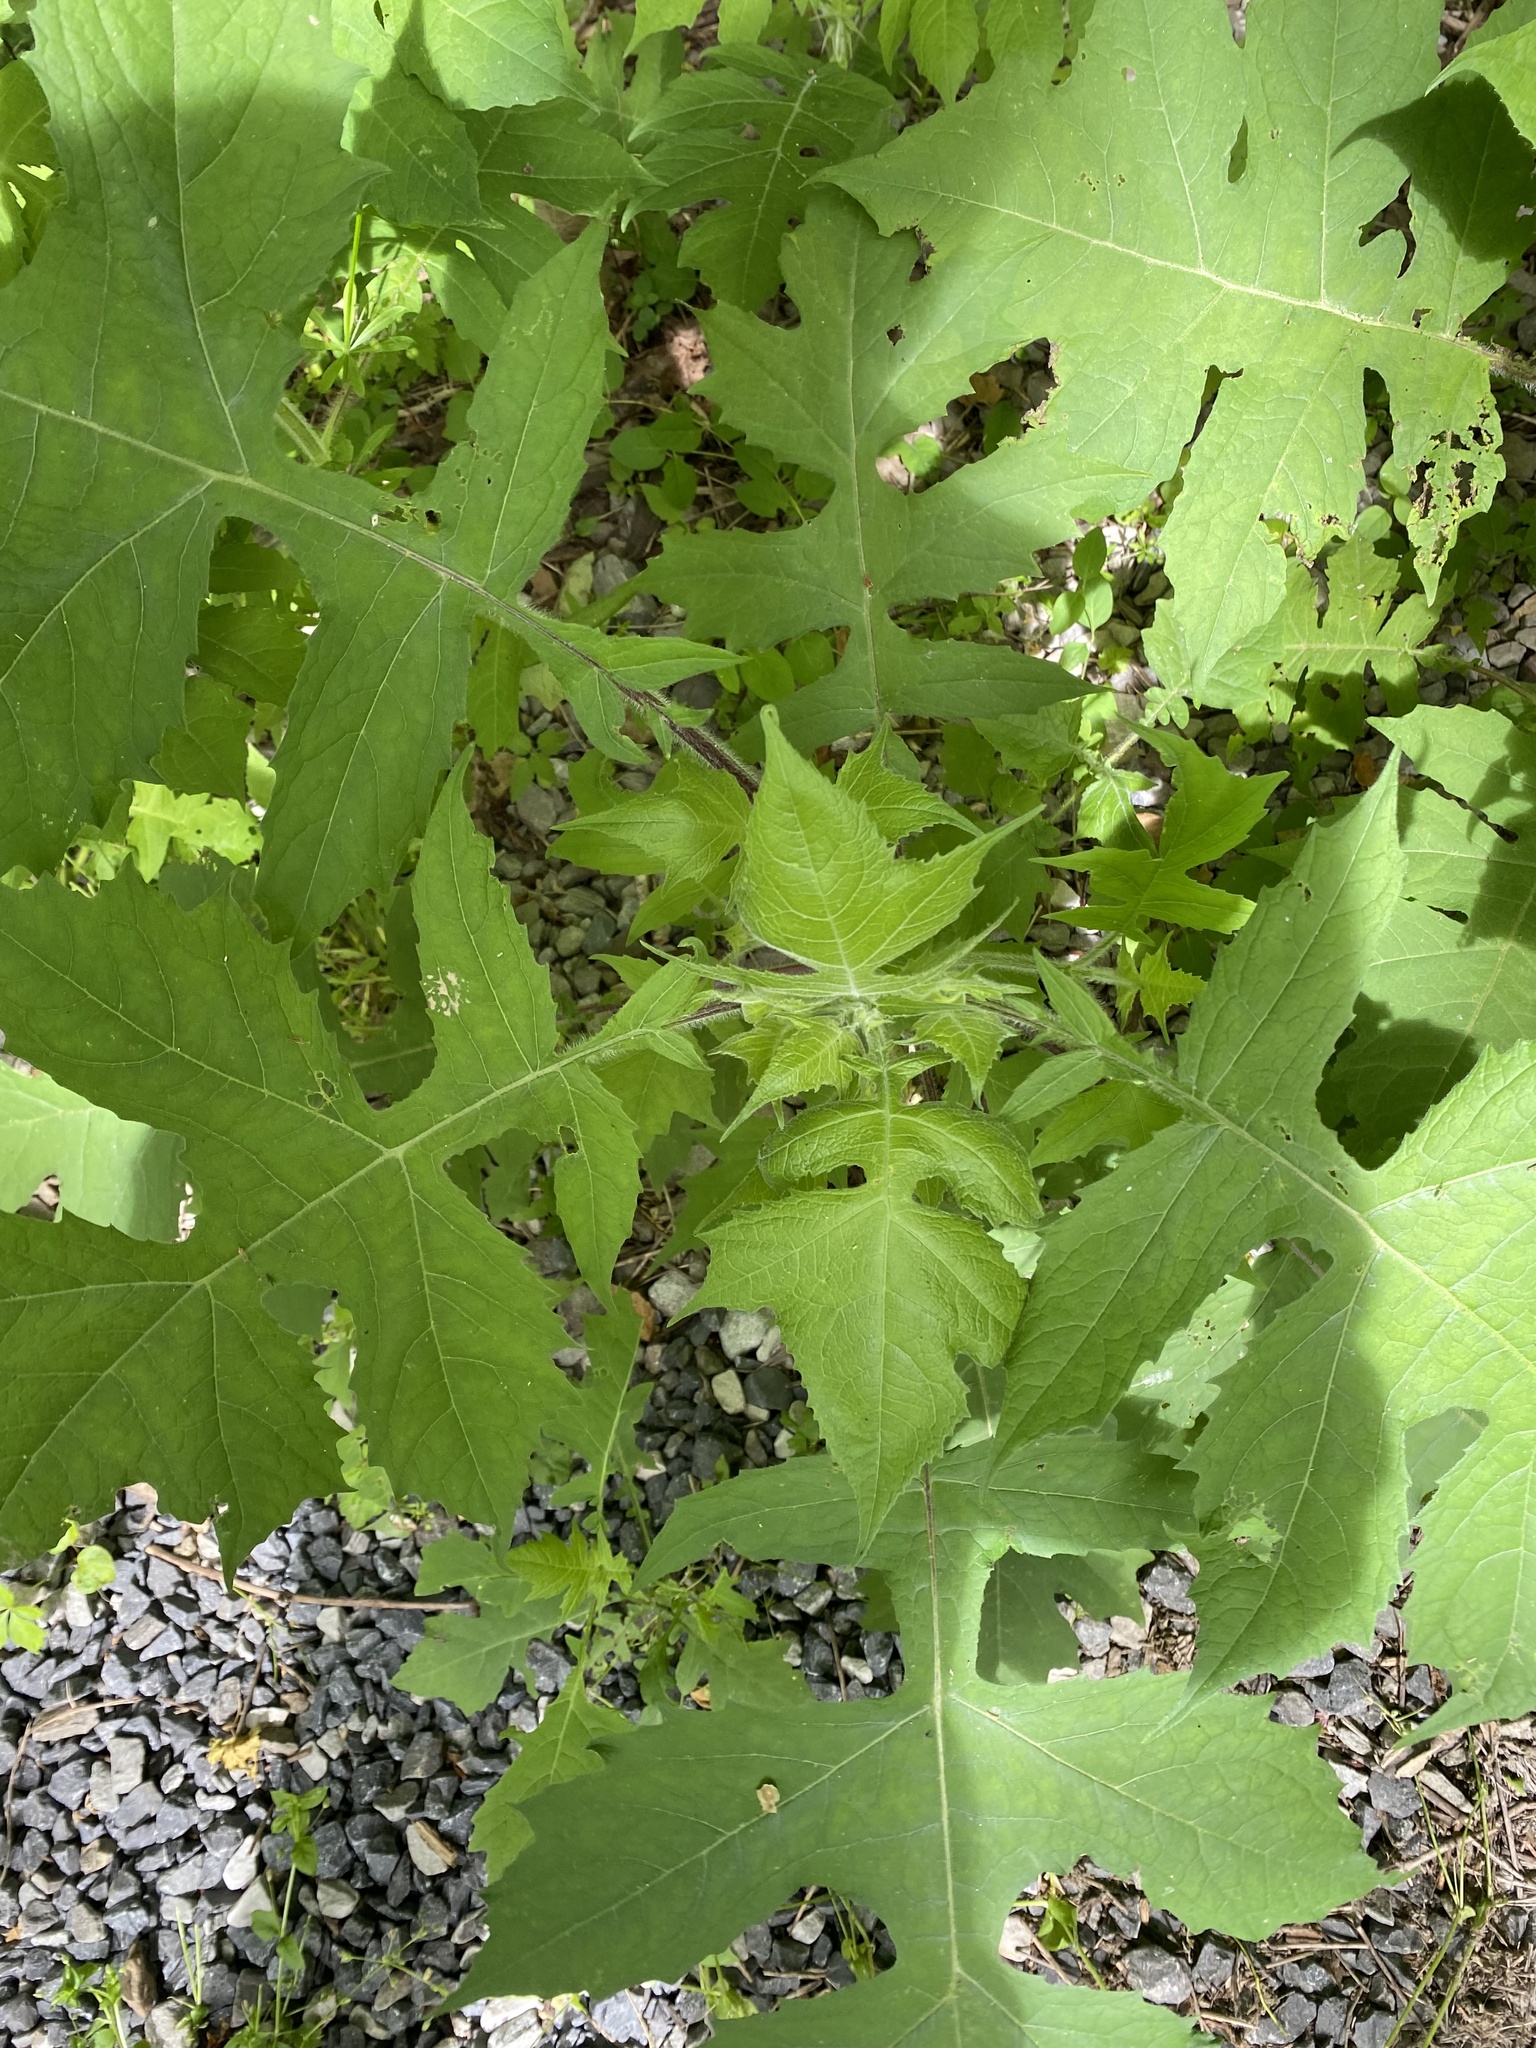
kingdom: Plantae
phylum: Tracheophyta
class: Magnoliopsida
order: Asterales
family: Asteraceae
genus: Polymnia
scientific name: Polymnia canadensis
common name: Pale-flowered leafcup
